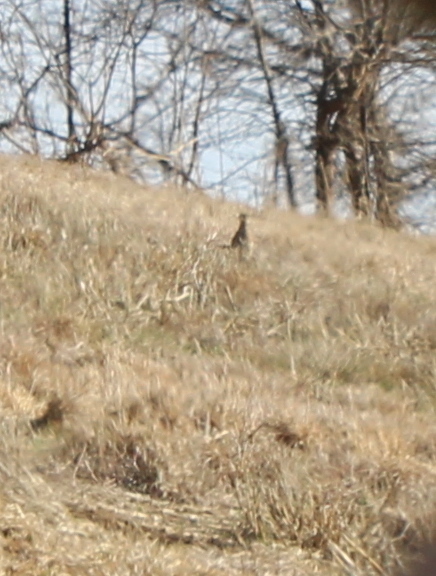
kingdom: Animalia
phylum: Chordata
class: Aves
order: Cuculiformes
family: Cuculidae
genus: Geococcyx
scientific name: Geococcyx californianus
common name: Greater roadrunner
